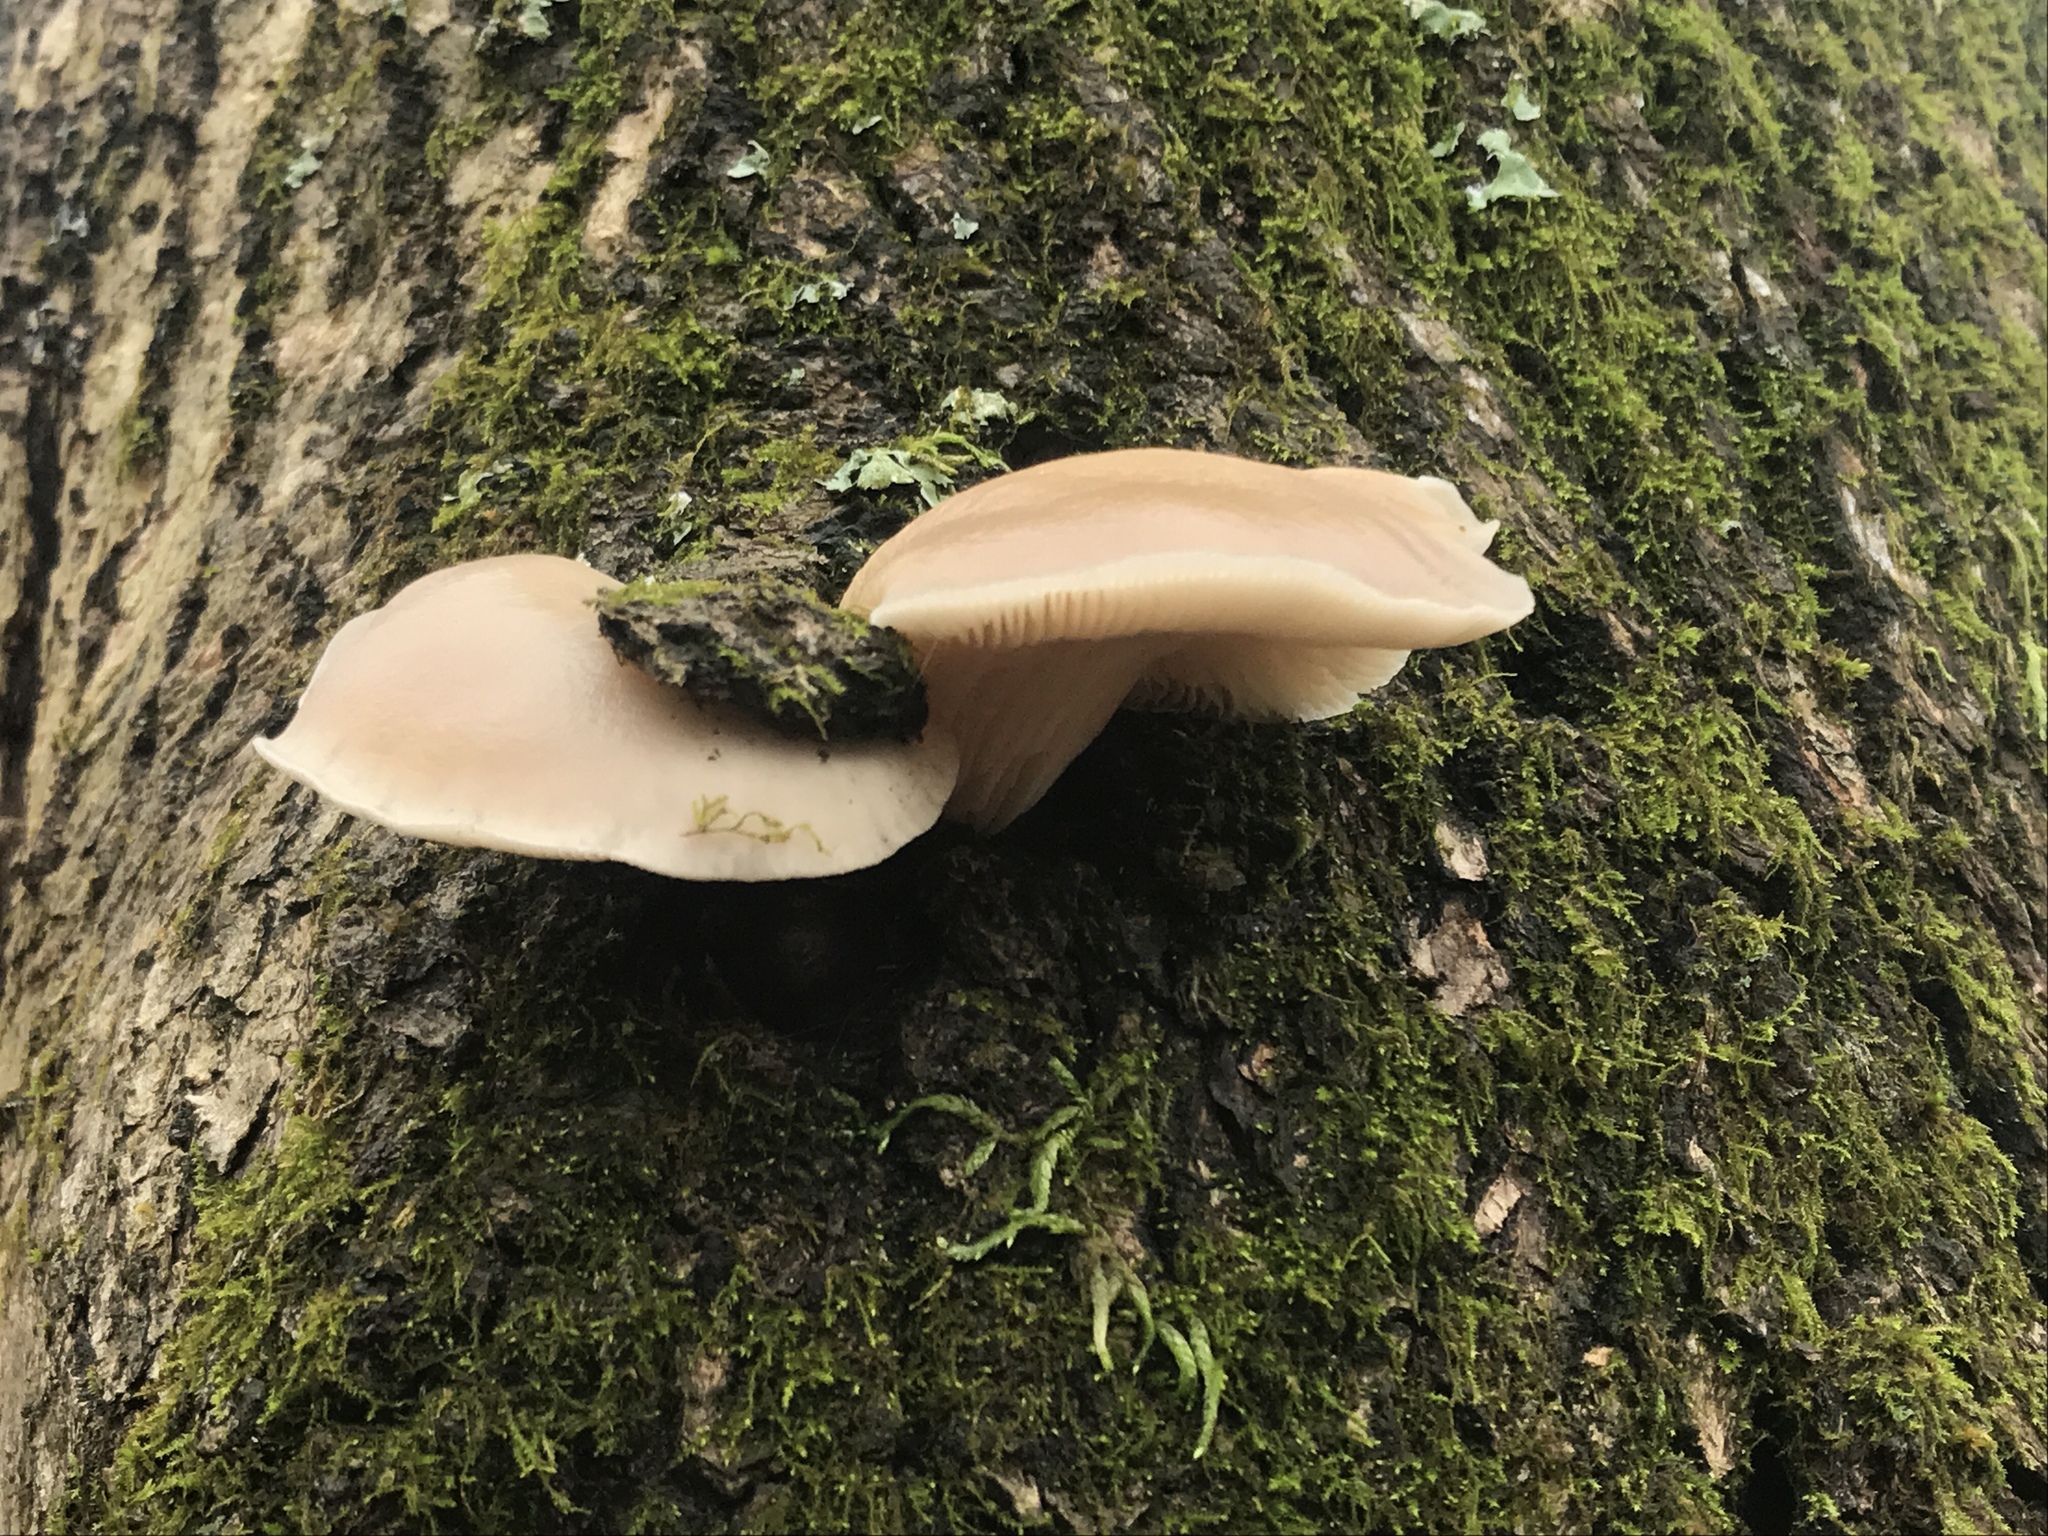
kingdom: Fungi
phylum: Basidiomycota
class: Agaricomycetes
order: Agaricales
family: Pleurotaceae
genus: Pleurotus
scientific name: Pleurotus ostreatus
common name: Oyster mushroom
